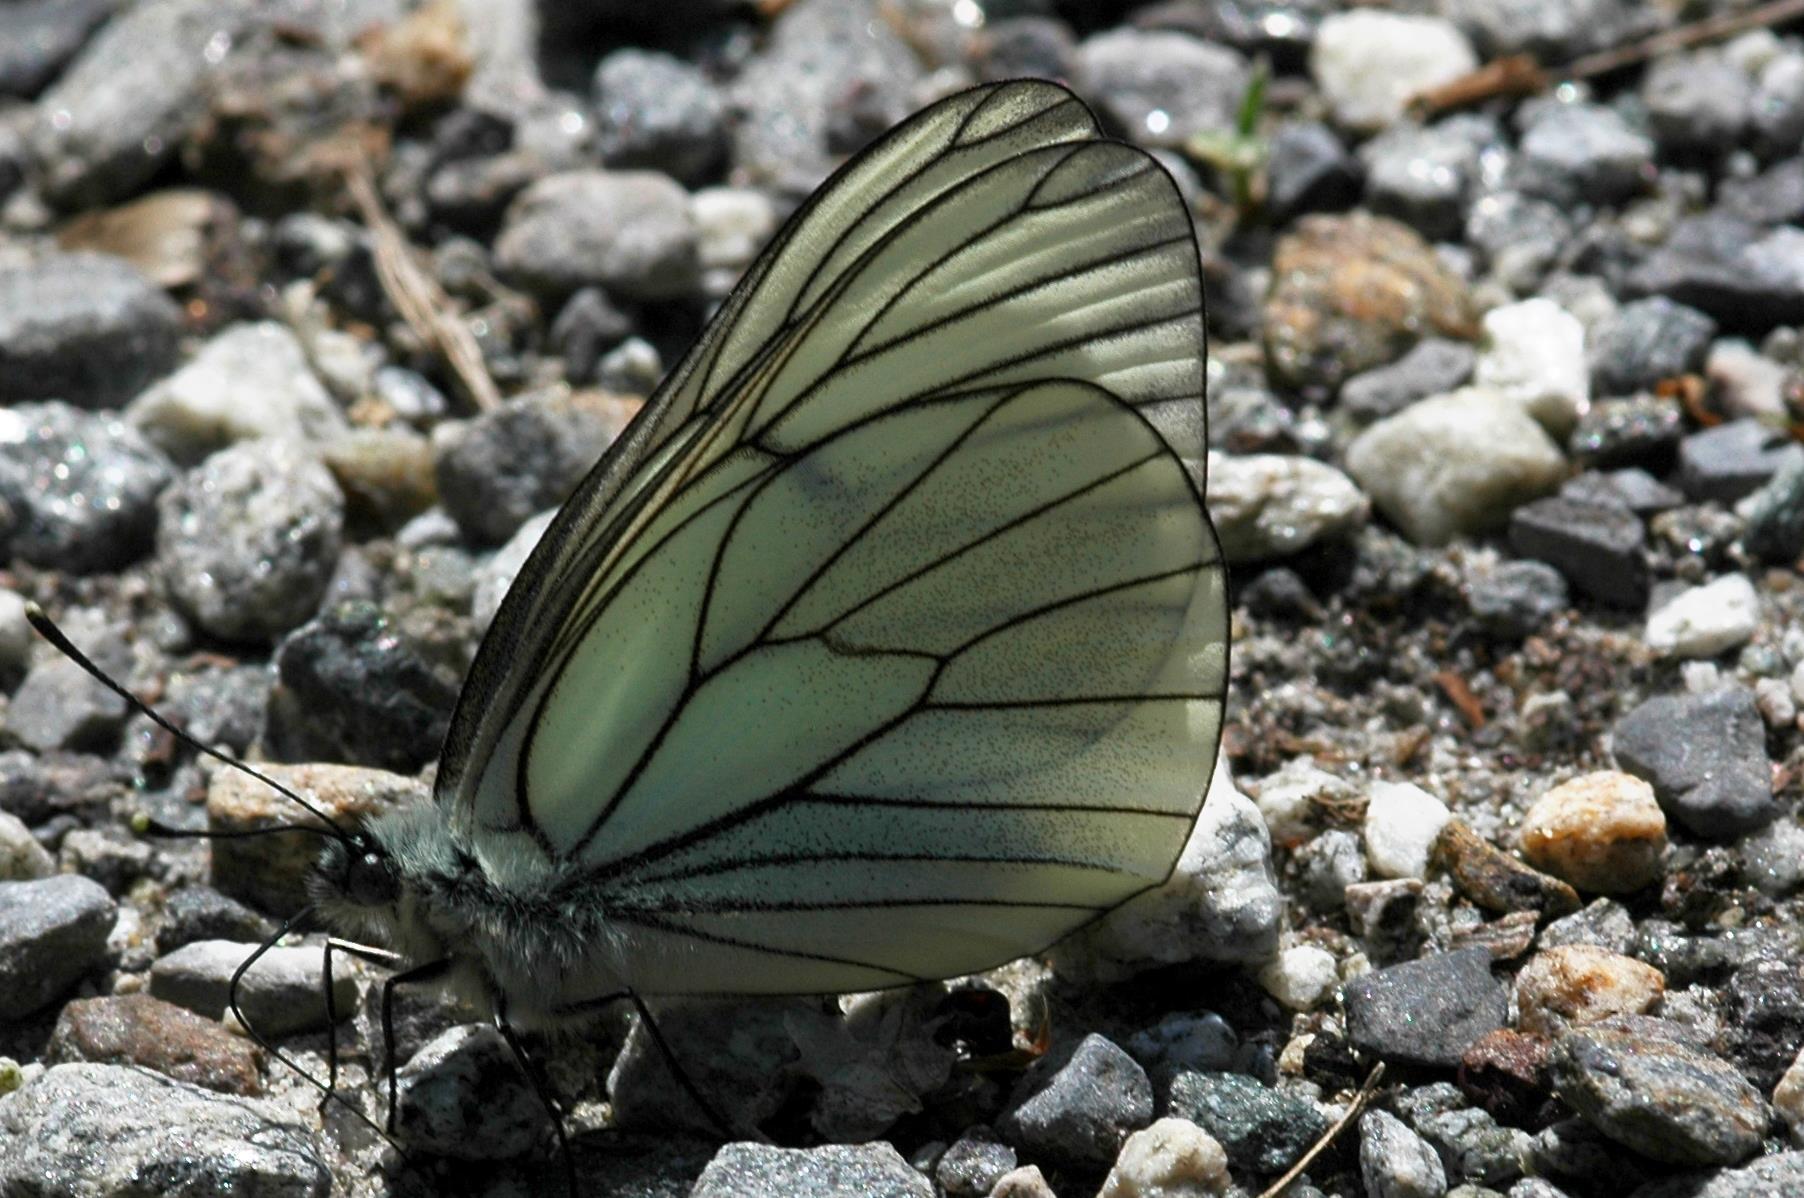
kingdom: Animalia
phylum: Arthropoda
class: Insecta
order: Lepidoptera
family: Pieridae
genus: Aporia
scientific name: Aporia crataegi
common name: Black-veined white
